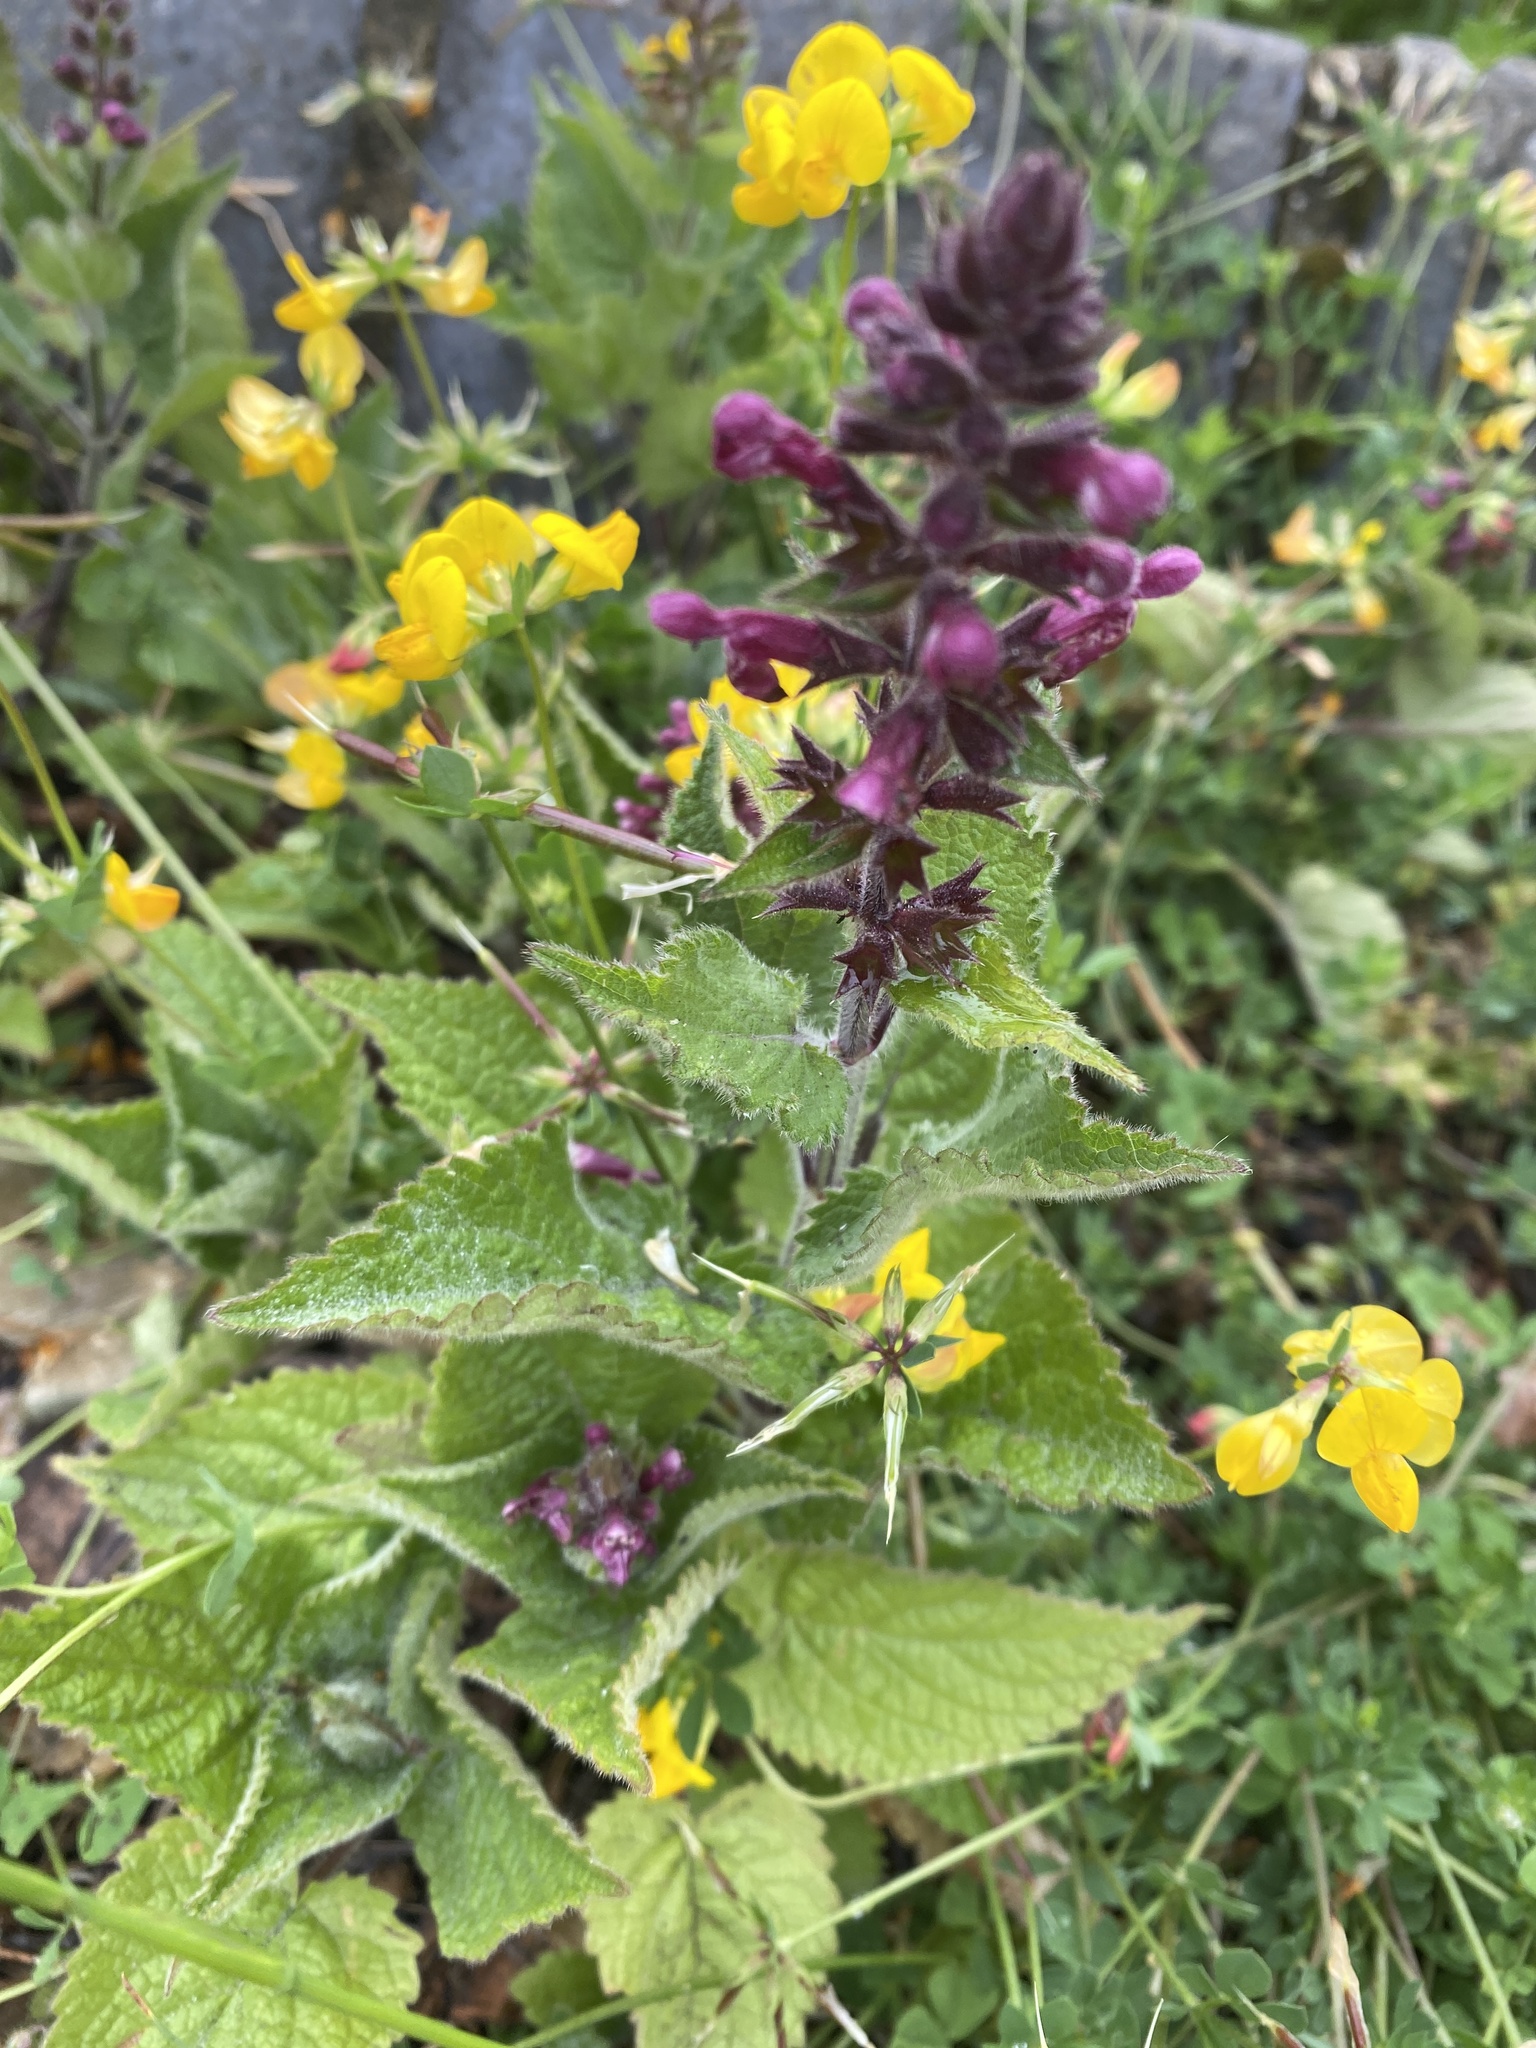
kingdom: Plantae
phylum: Tracheophyta
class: Magnoliopsida
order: Lamiales
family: Lamiaceae
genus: Stachys
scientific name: Stachys sylvatica
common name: Hedge woundwort
